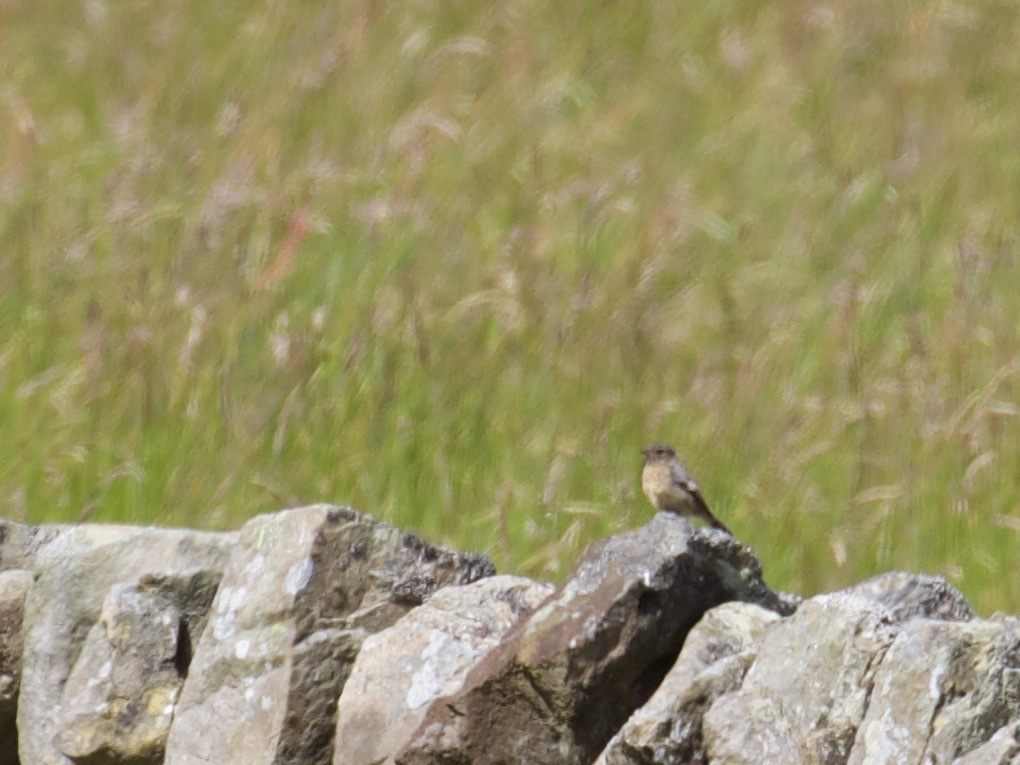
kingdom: Animalia
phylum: Chordata
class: Aves
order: Passeriformes
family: Muscicapidae
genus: Saxicola
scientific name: Saxicola rubicola
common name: European stonechat
